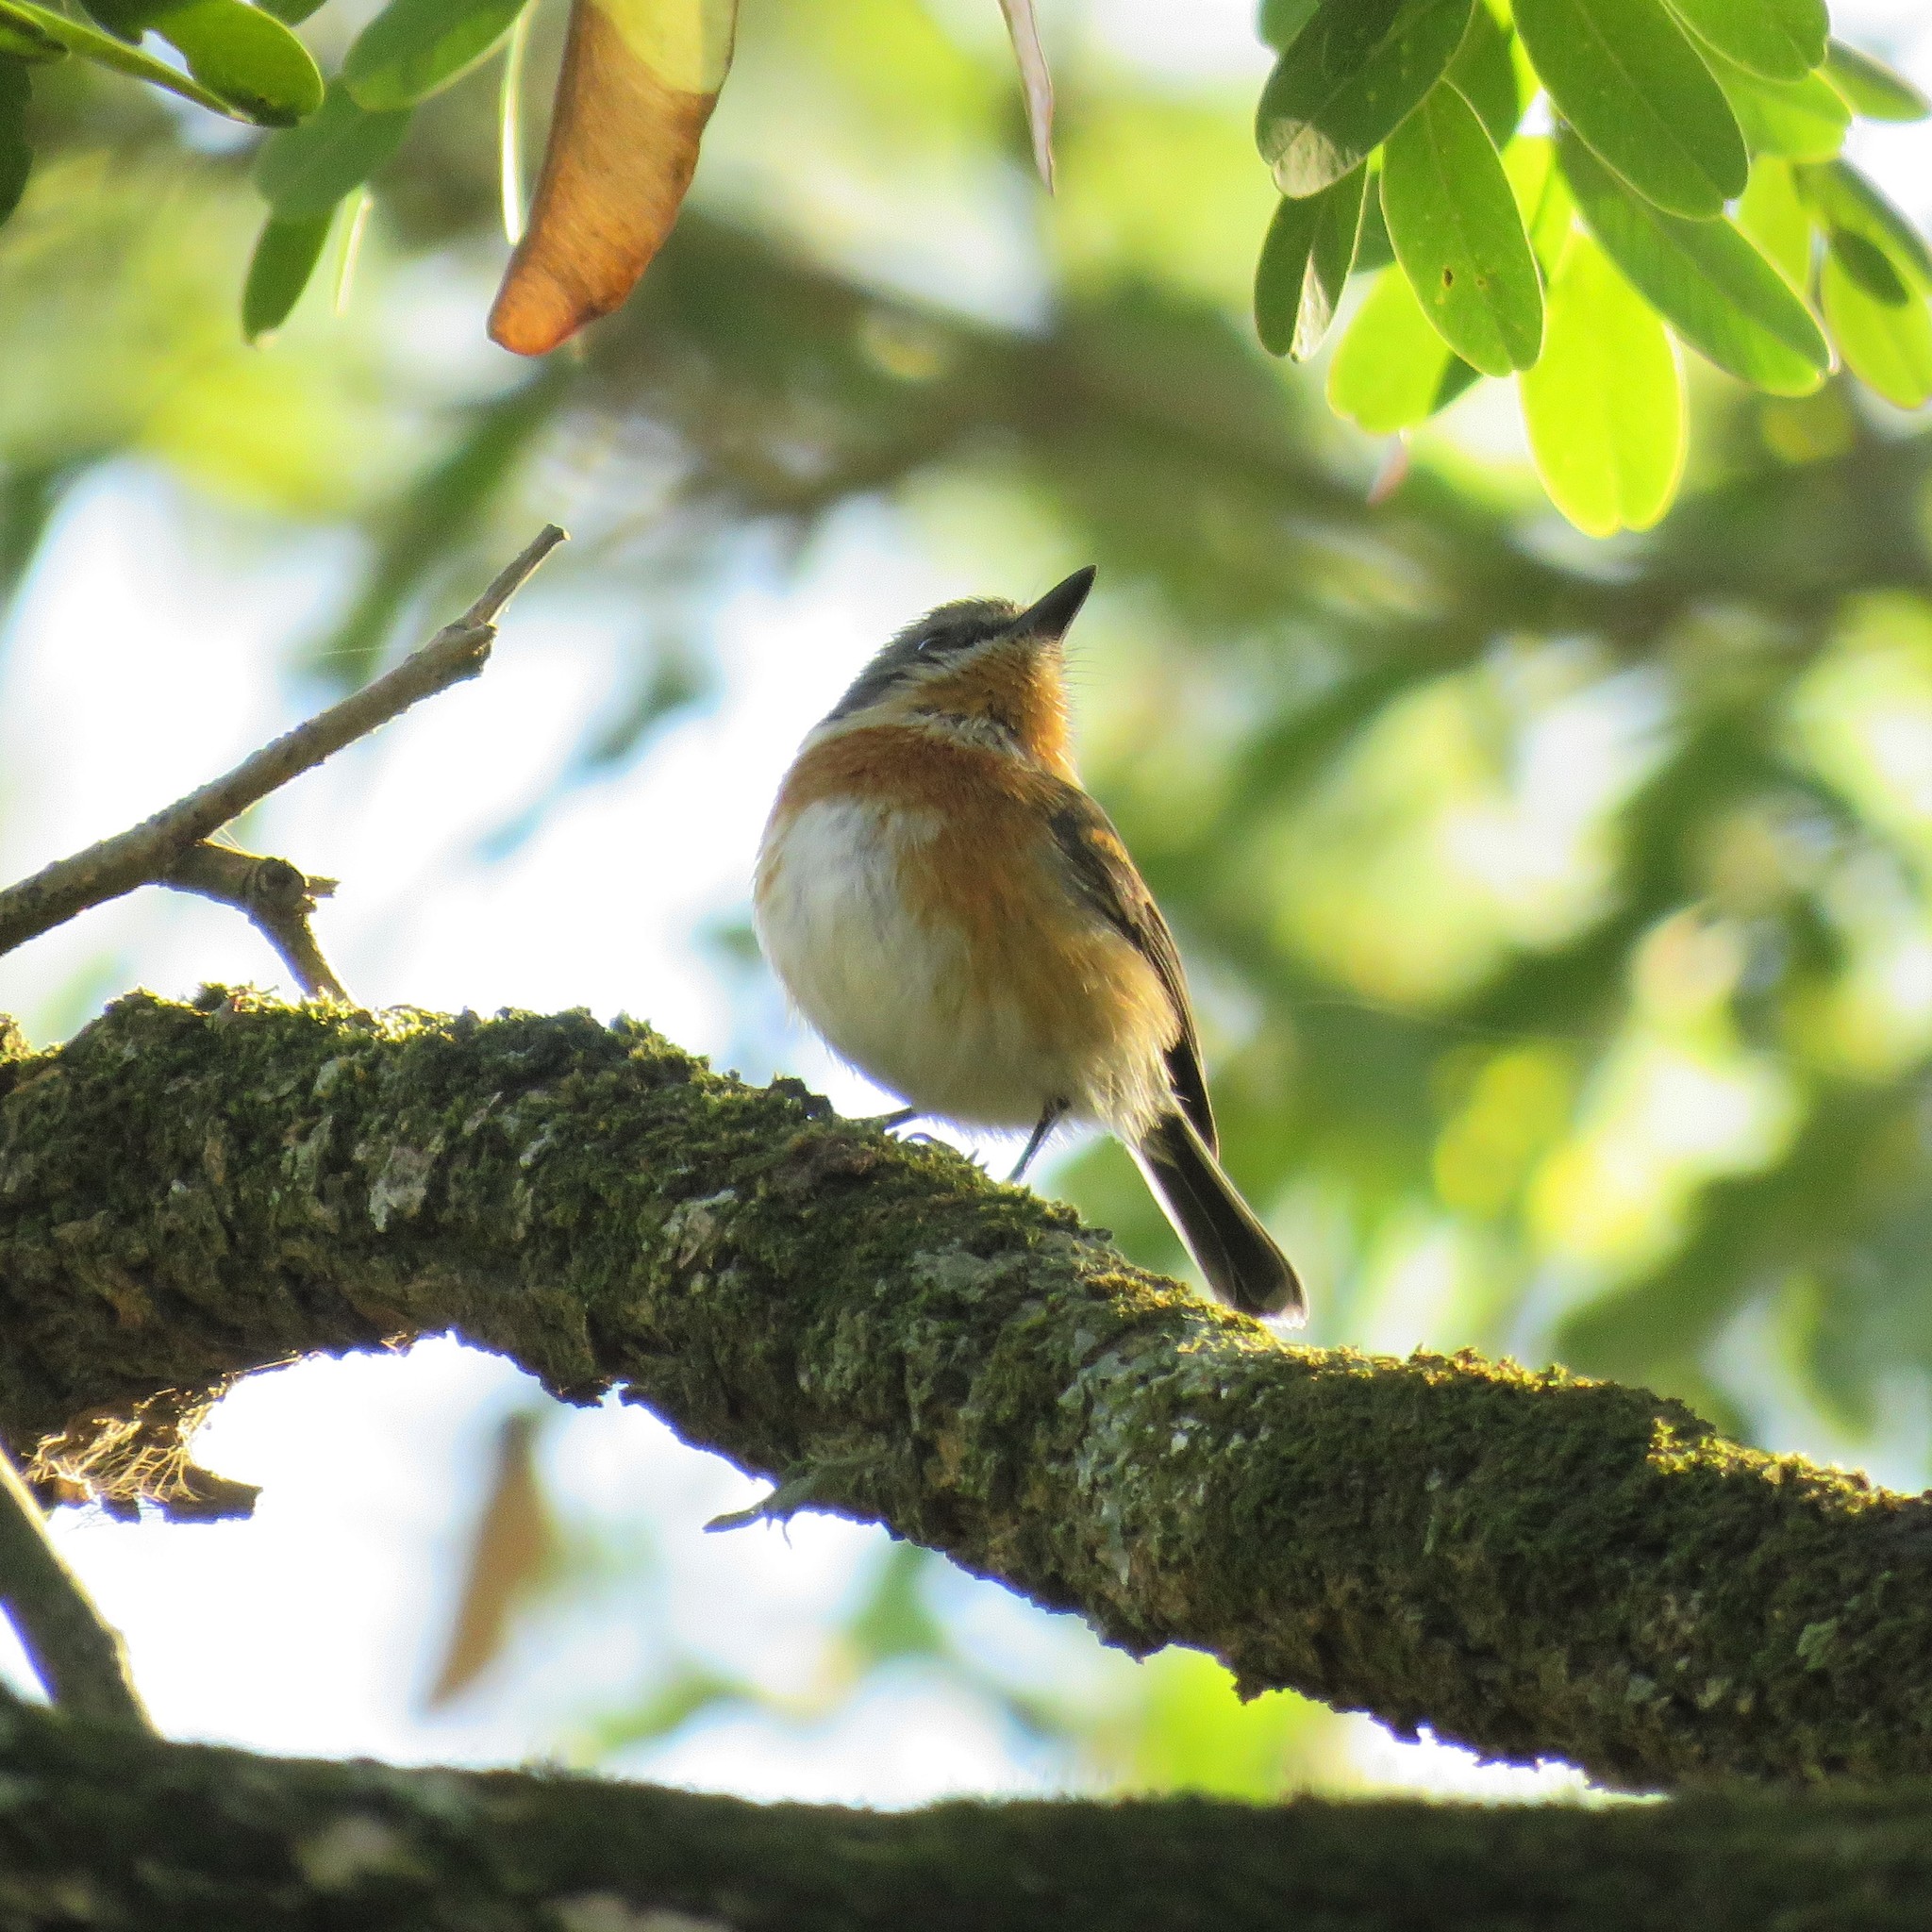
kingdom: Animalia
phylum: Chordata
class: Aves
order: Passeriformes
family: Platysteiridae
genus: Batis
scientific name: Batis capensis
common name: Cape batis
